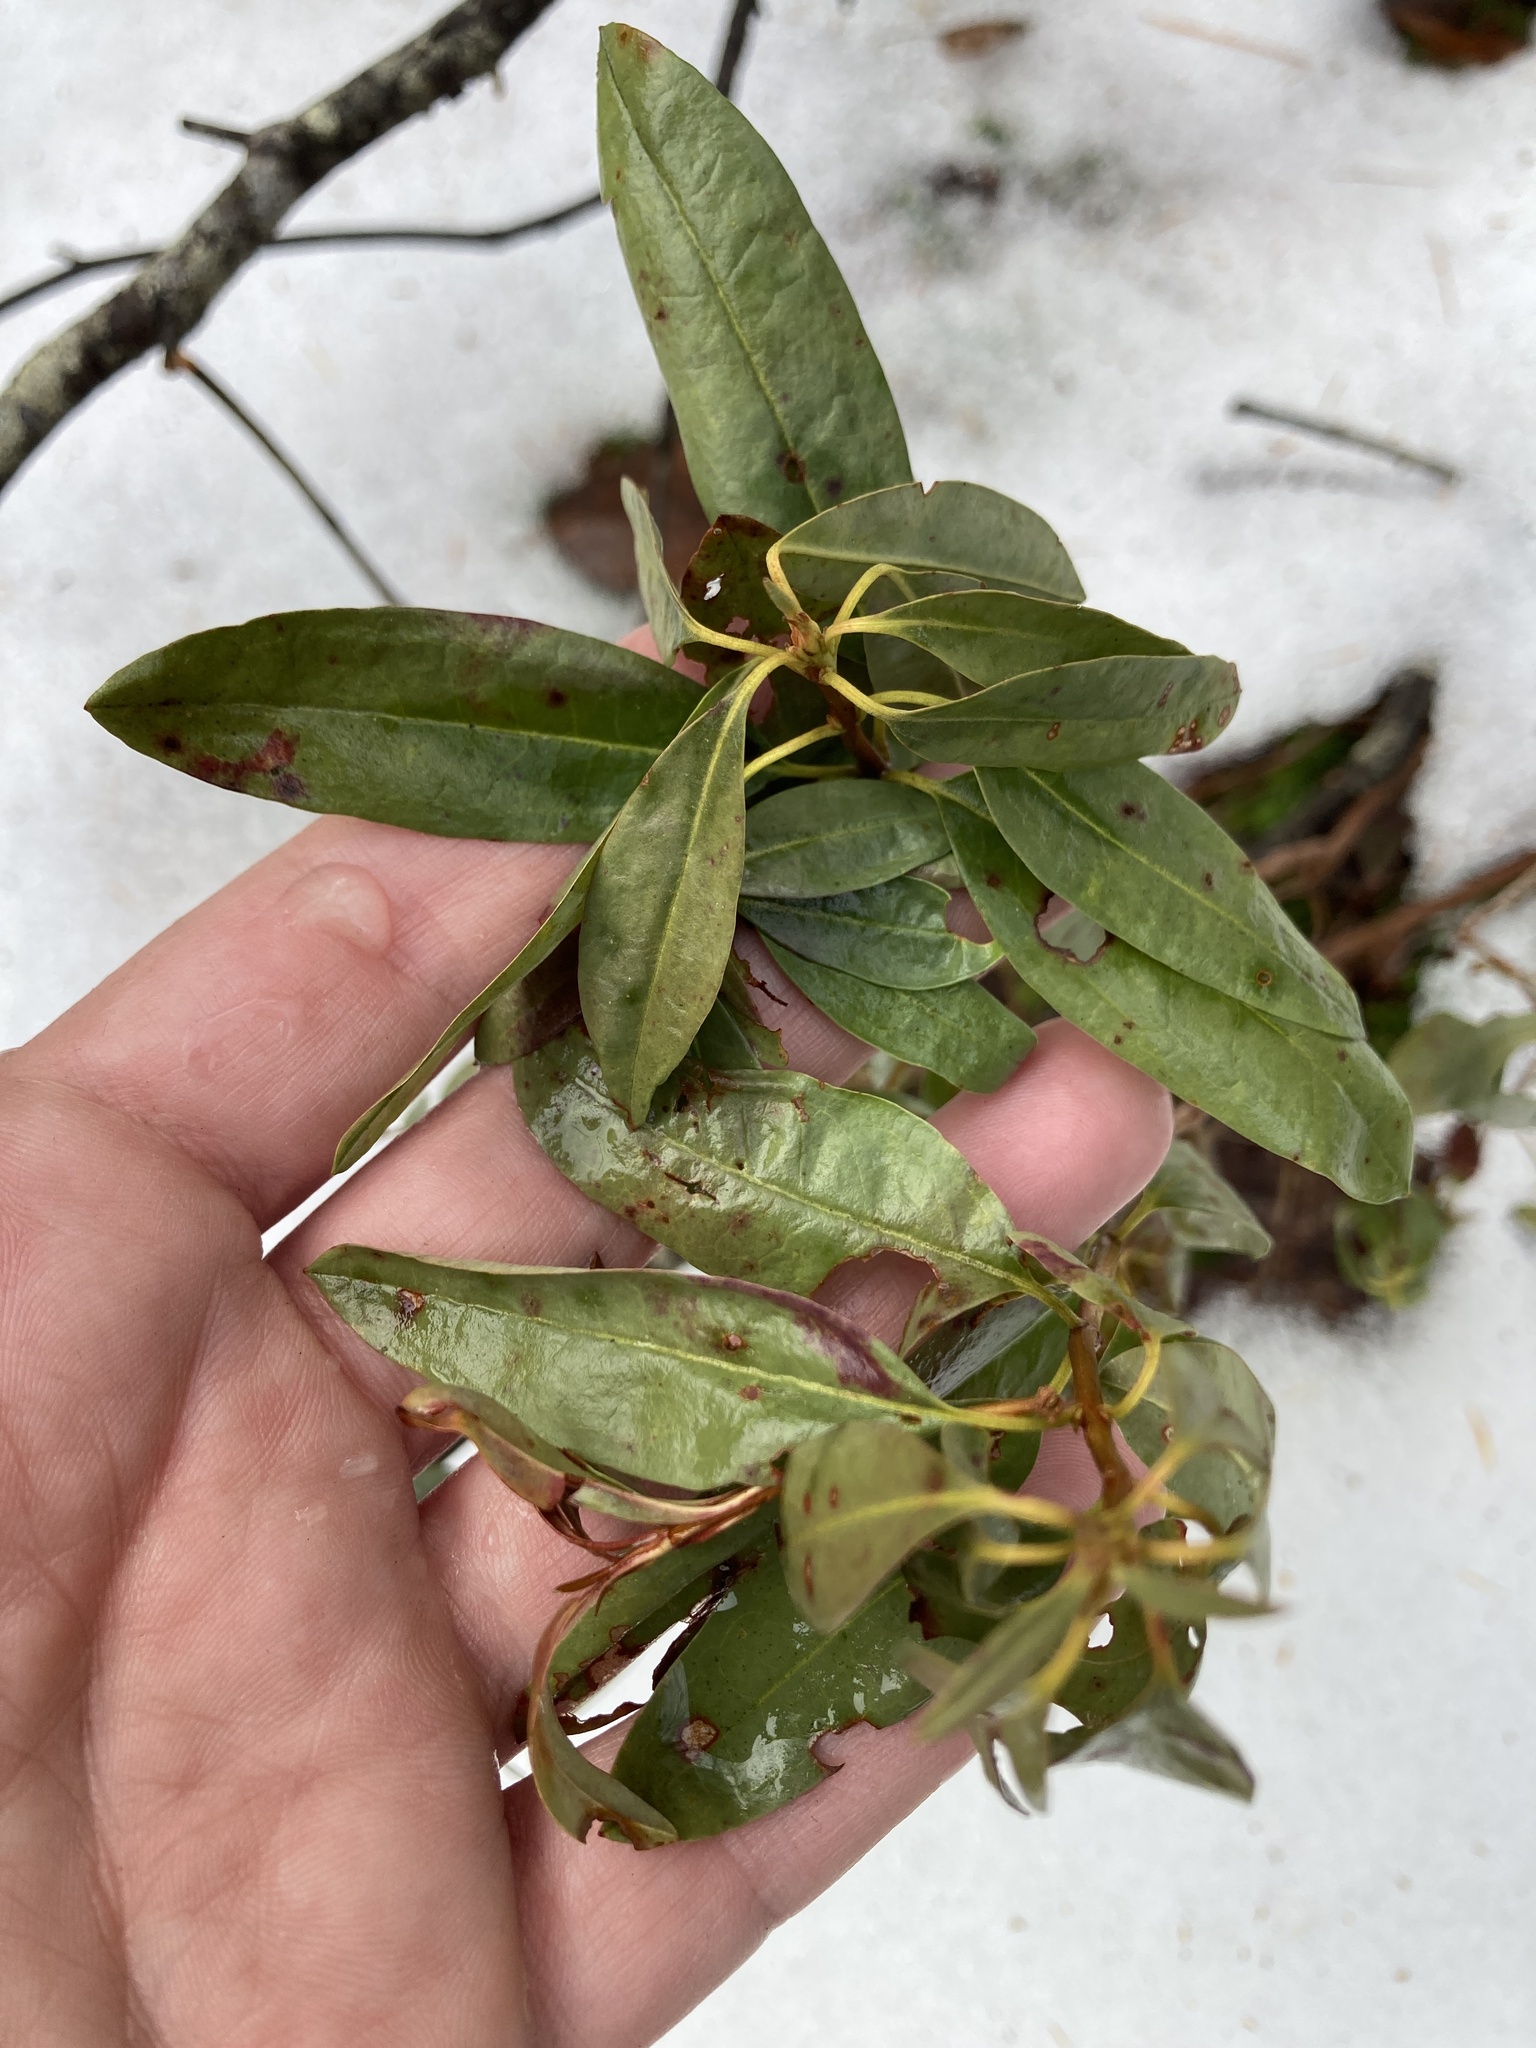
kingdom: Plantae
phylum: Tracheophyta
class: Magnoliopsida
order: Ericales
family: Ericaceae
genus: Kalmia
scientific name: Kalmia angustifolia
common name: Sheep-laurel
